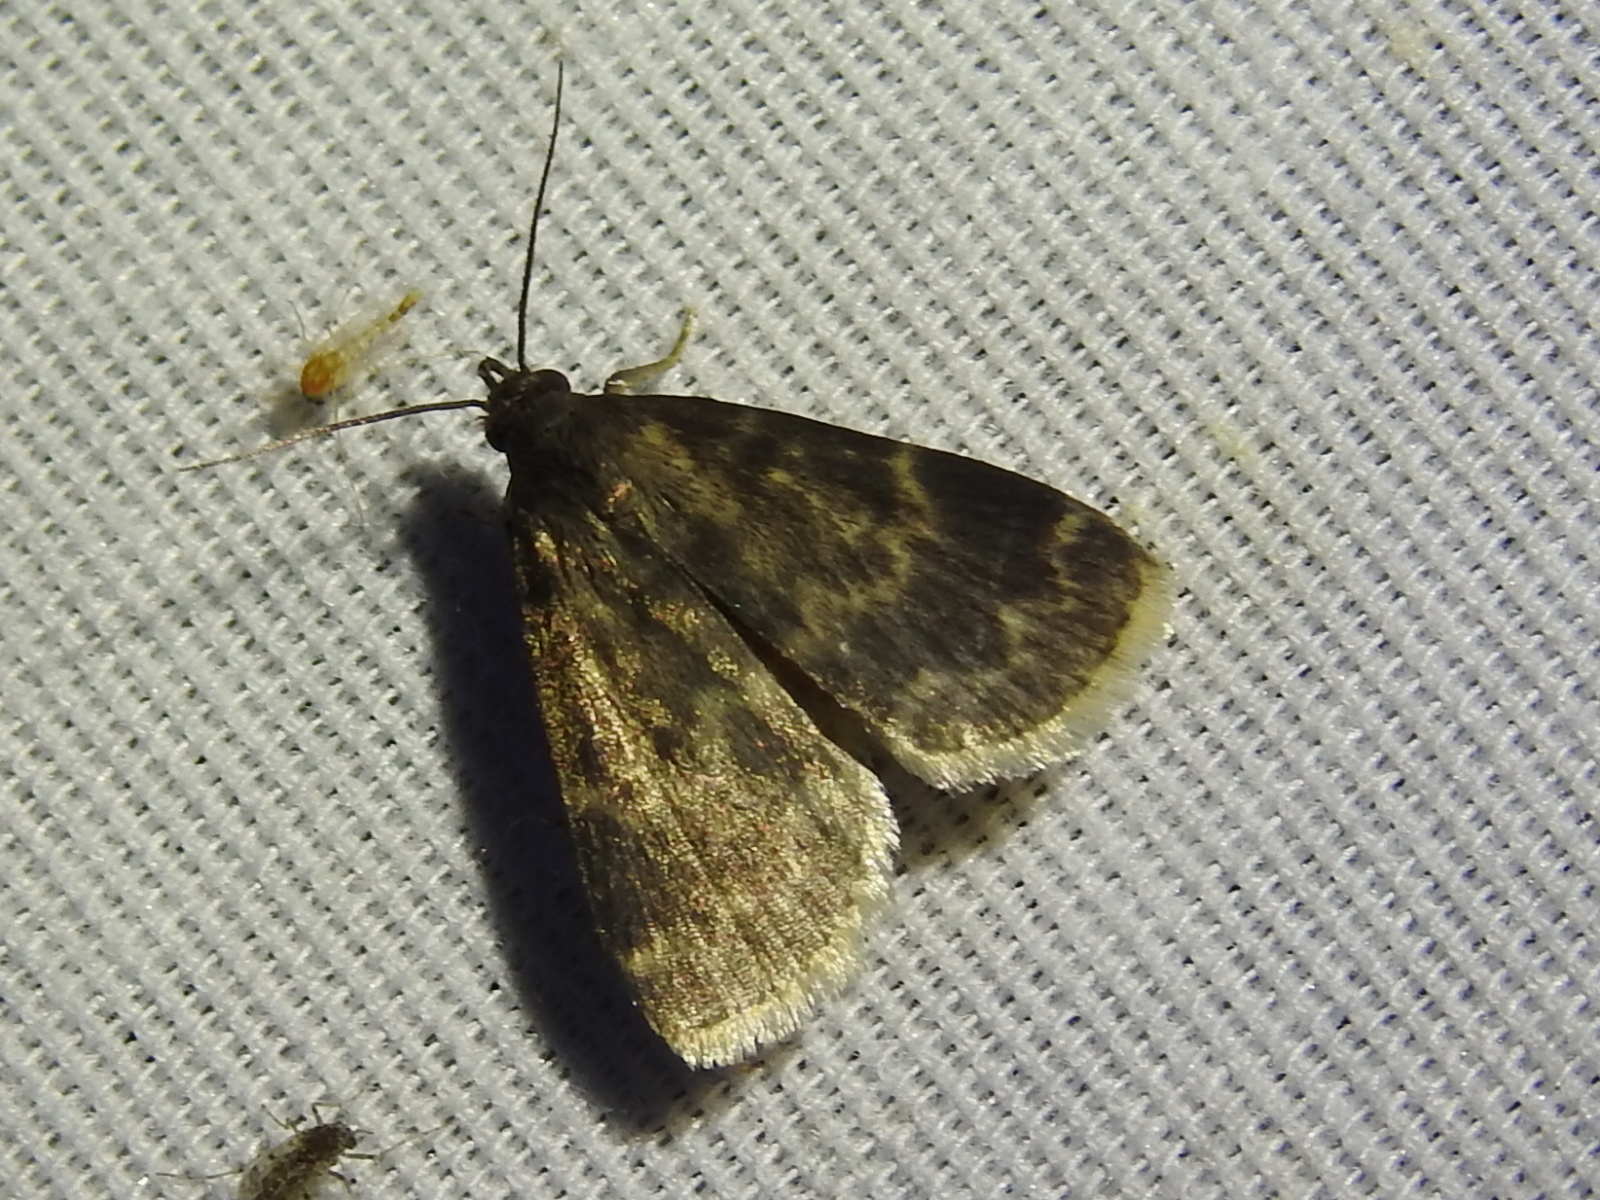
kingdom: Animalia
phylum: Arthropoda
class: Insecta
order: Lepidoptera
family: Erebidae
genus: Idia
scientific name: Idia lubricalis
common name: Twin-striped tabby
